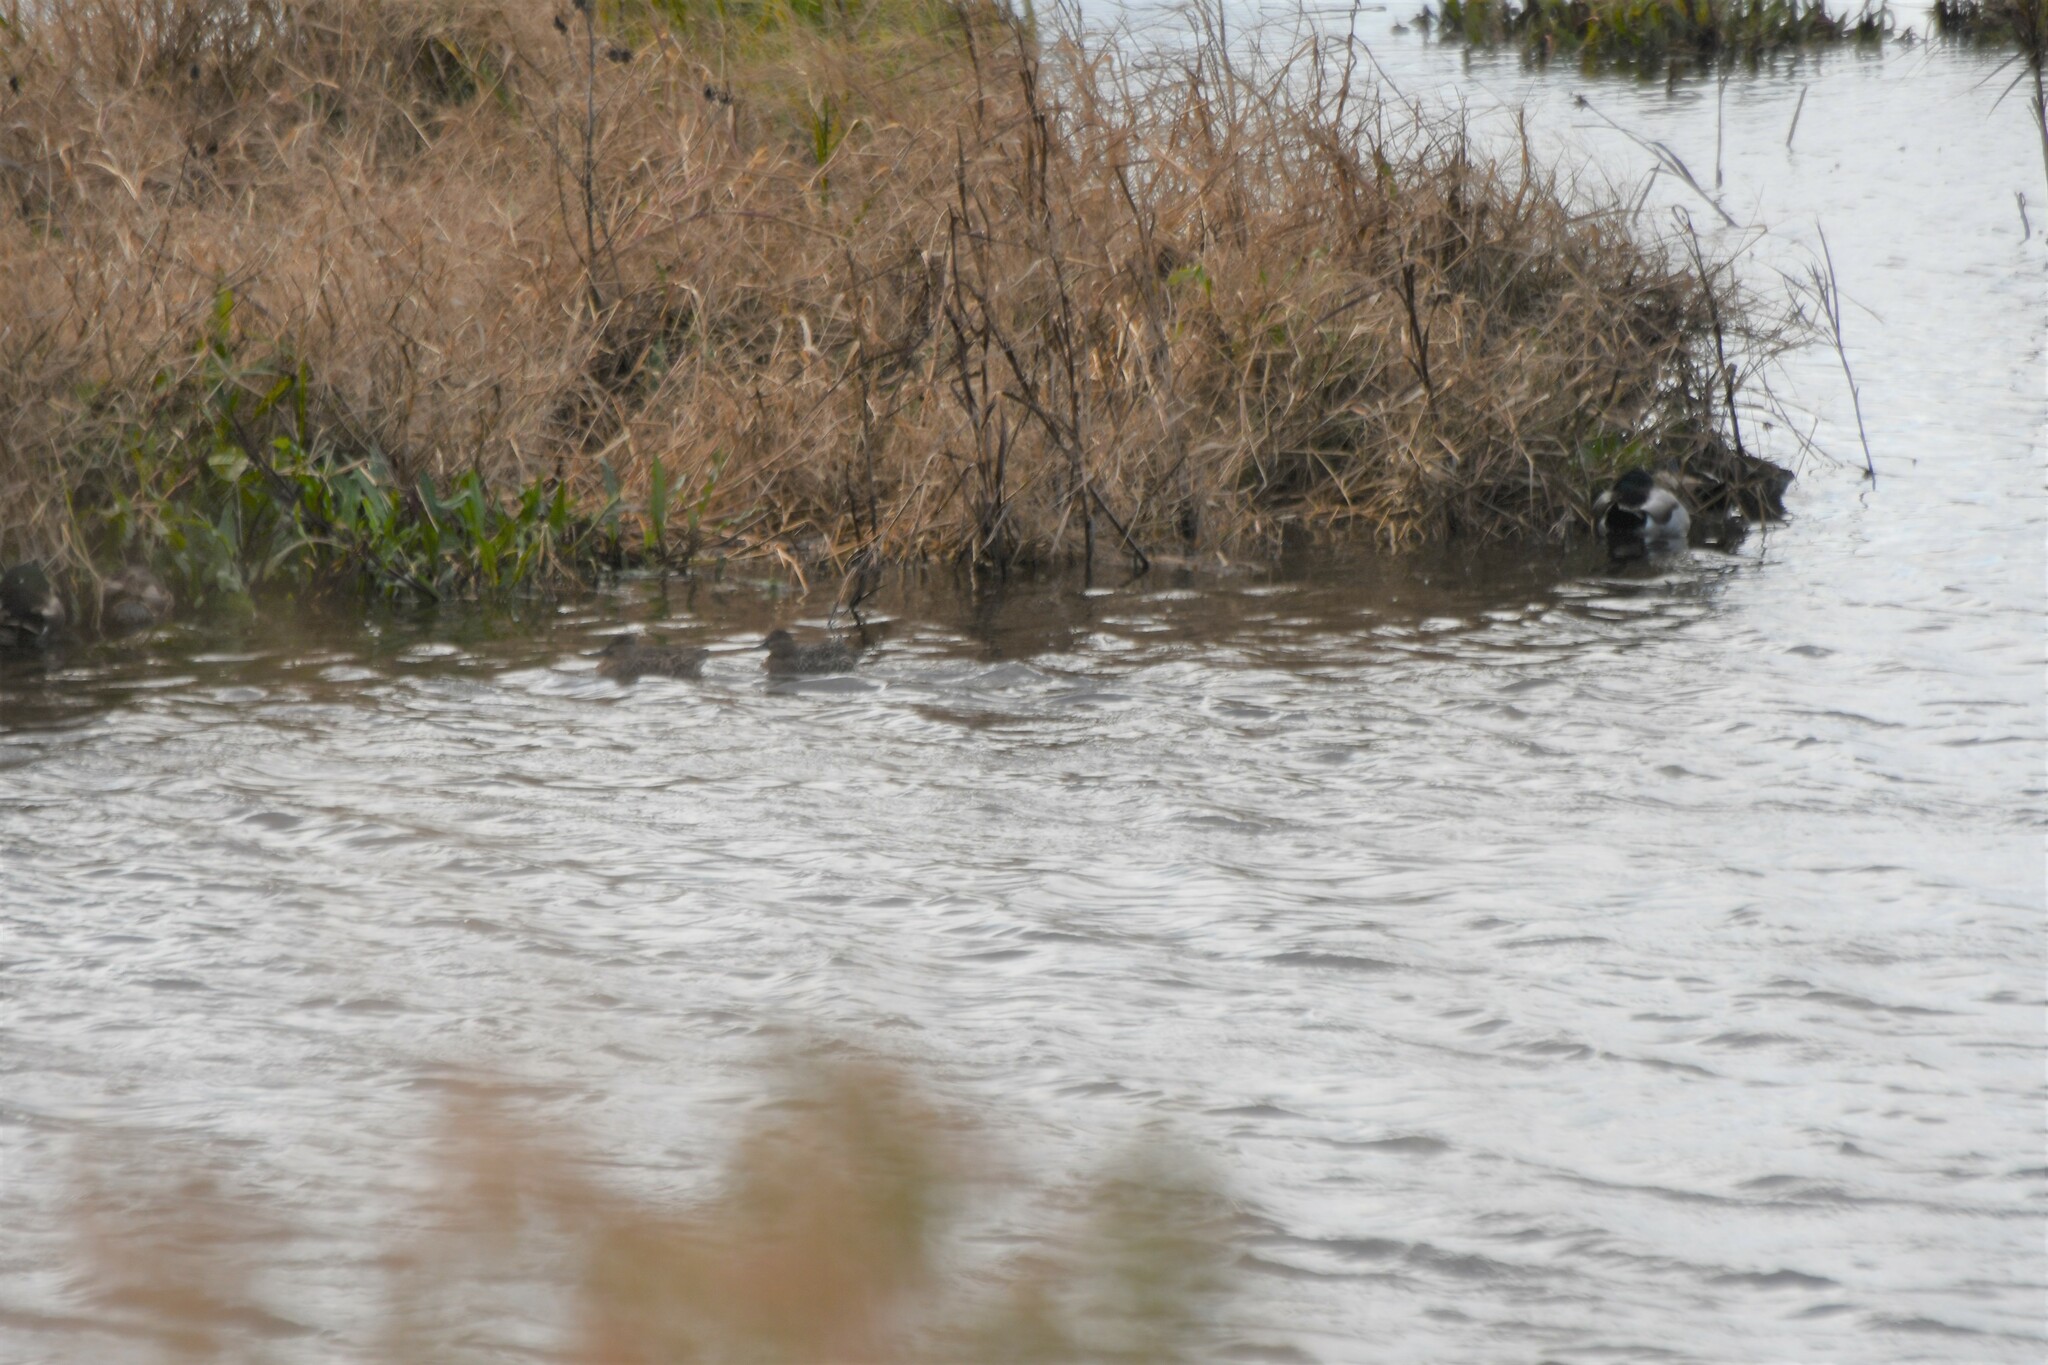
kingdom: Animalia
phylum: Chordata
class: Aves
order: Anseriformes
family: Anatidae
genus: Anas
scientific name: Anas crecca
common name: Eurasian teal
